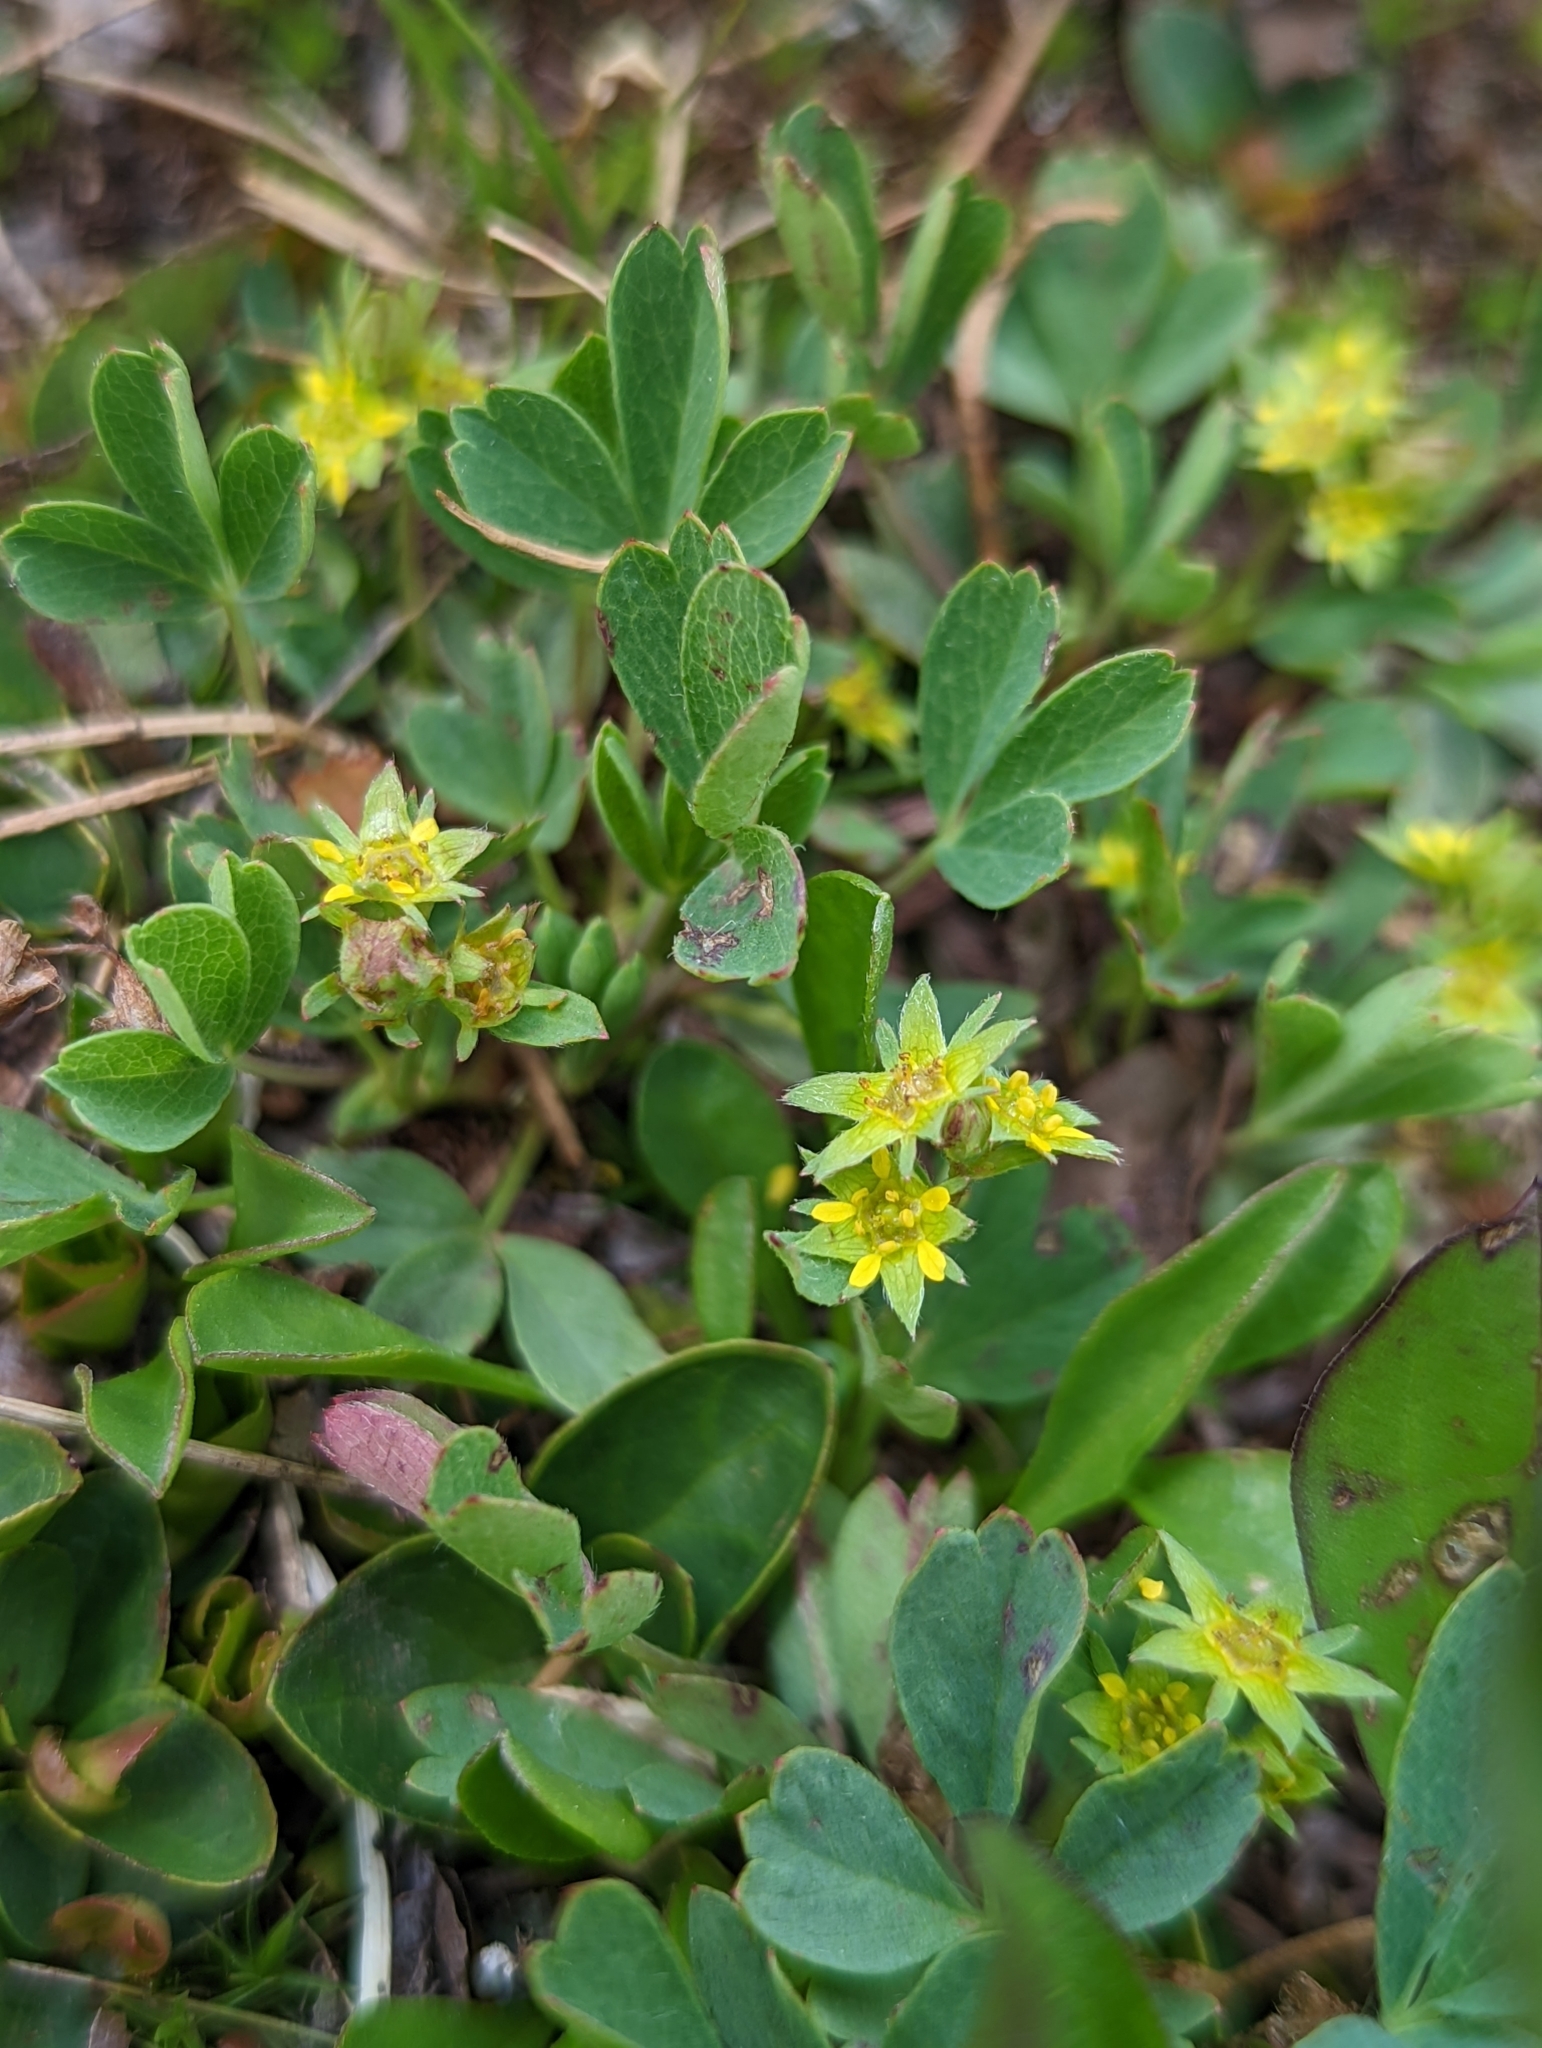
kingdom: Plantae
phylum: Tracheophyta
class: Magnoliopsida
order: Rosales
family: Rosaceae
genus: Sibbaldia
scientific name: Sibbaldia procumbens
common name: Creeping sibbaldia
